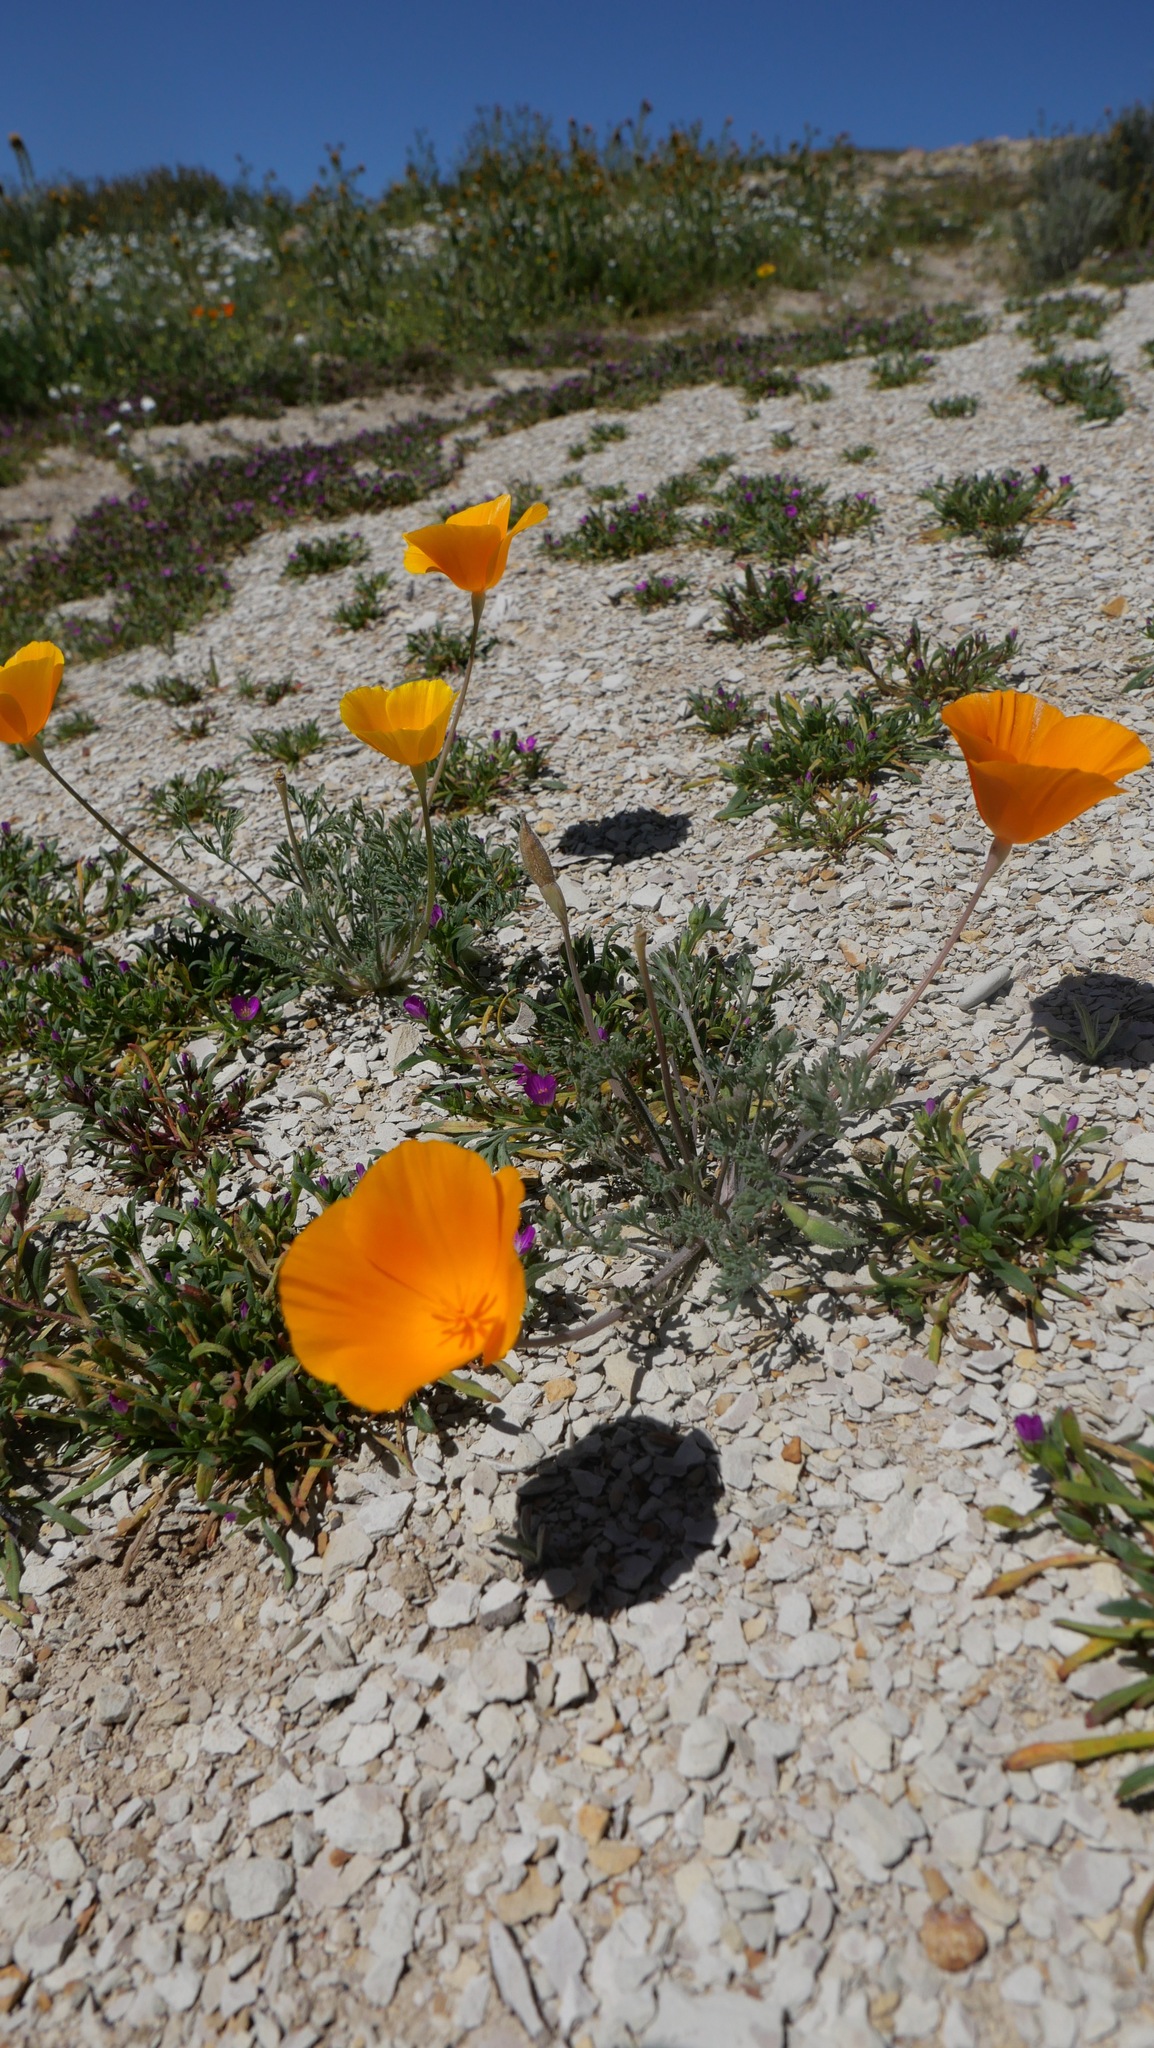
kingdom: Plantae
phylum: Tracheophyta
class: Magnoliopsida
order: Ranunculales
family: Papaveraceae
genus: Eschscholzia
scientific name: Eschscholzia lemmonii
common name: Lemmon's poppy
